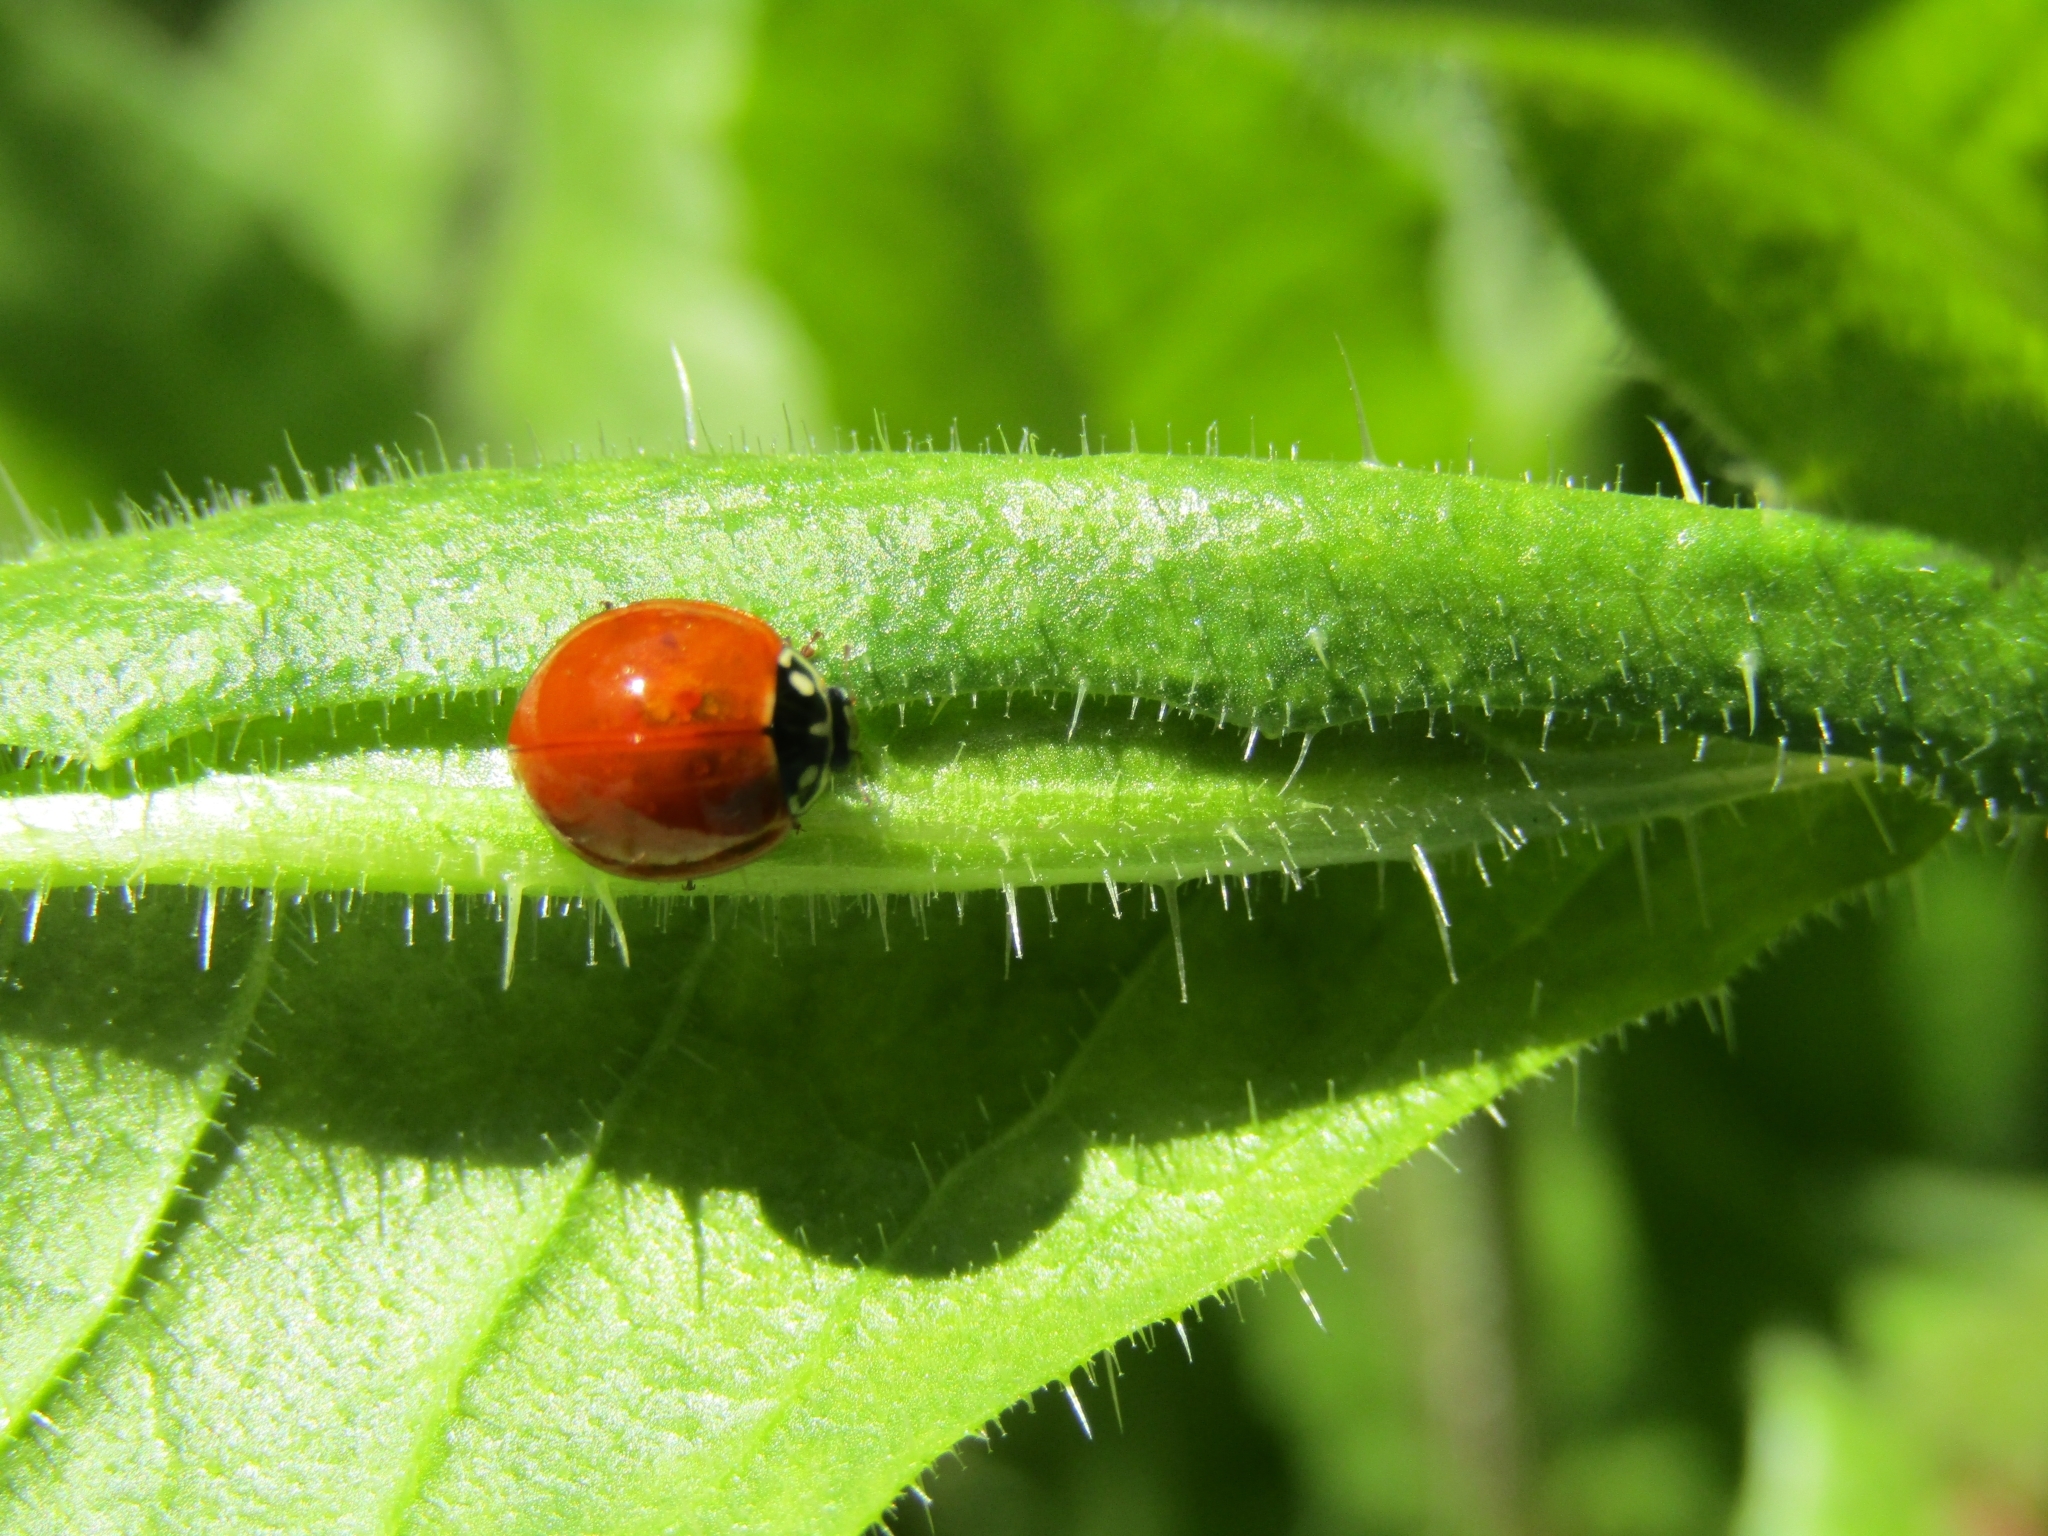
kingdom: Animalia
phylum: Arthropoda
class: Insecta
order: Coleoptera
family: Coccinellidae
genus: Cycloneda
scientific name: Cycloneda sanguinea
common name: Ladybird beetle
